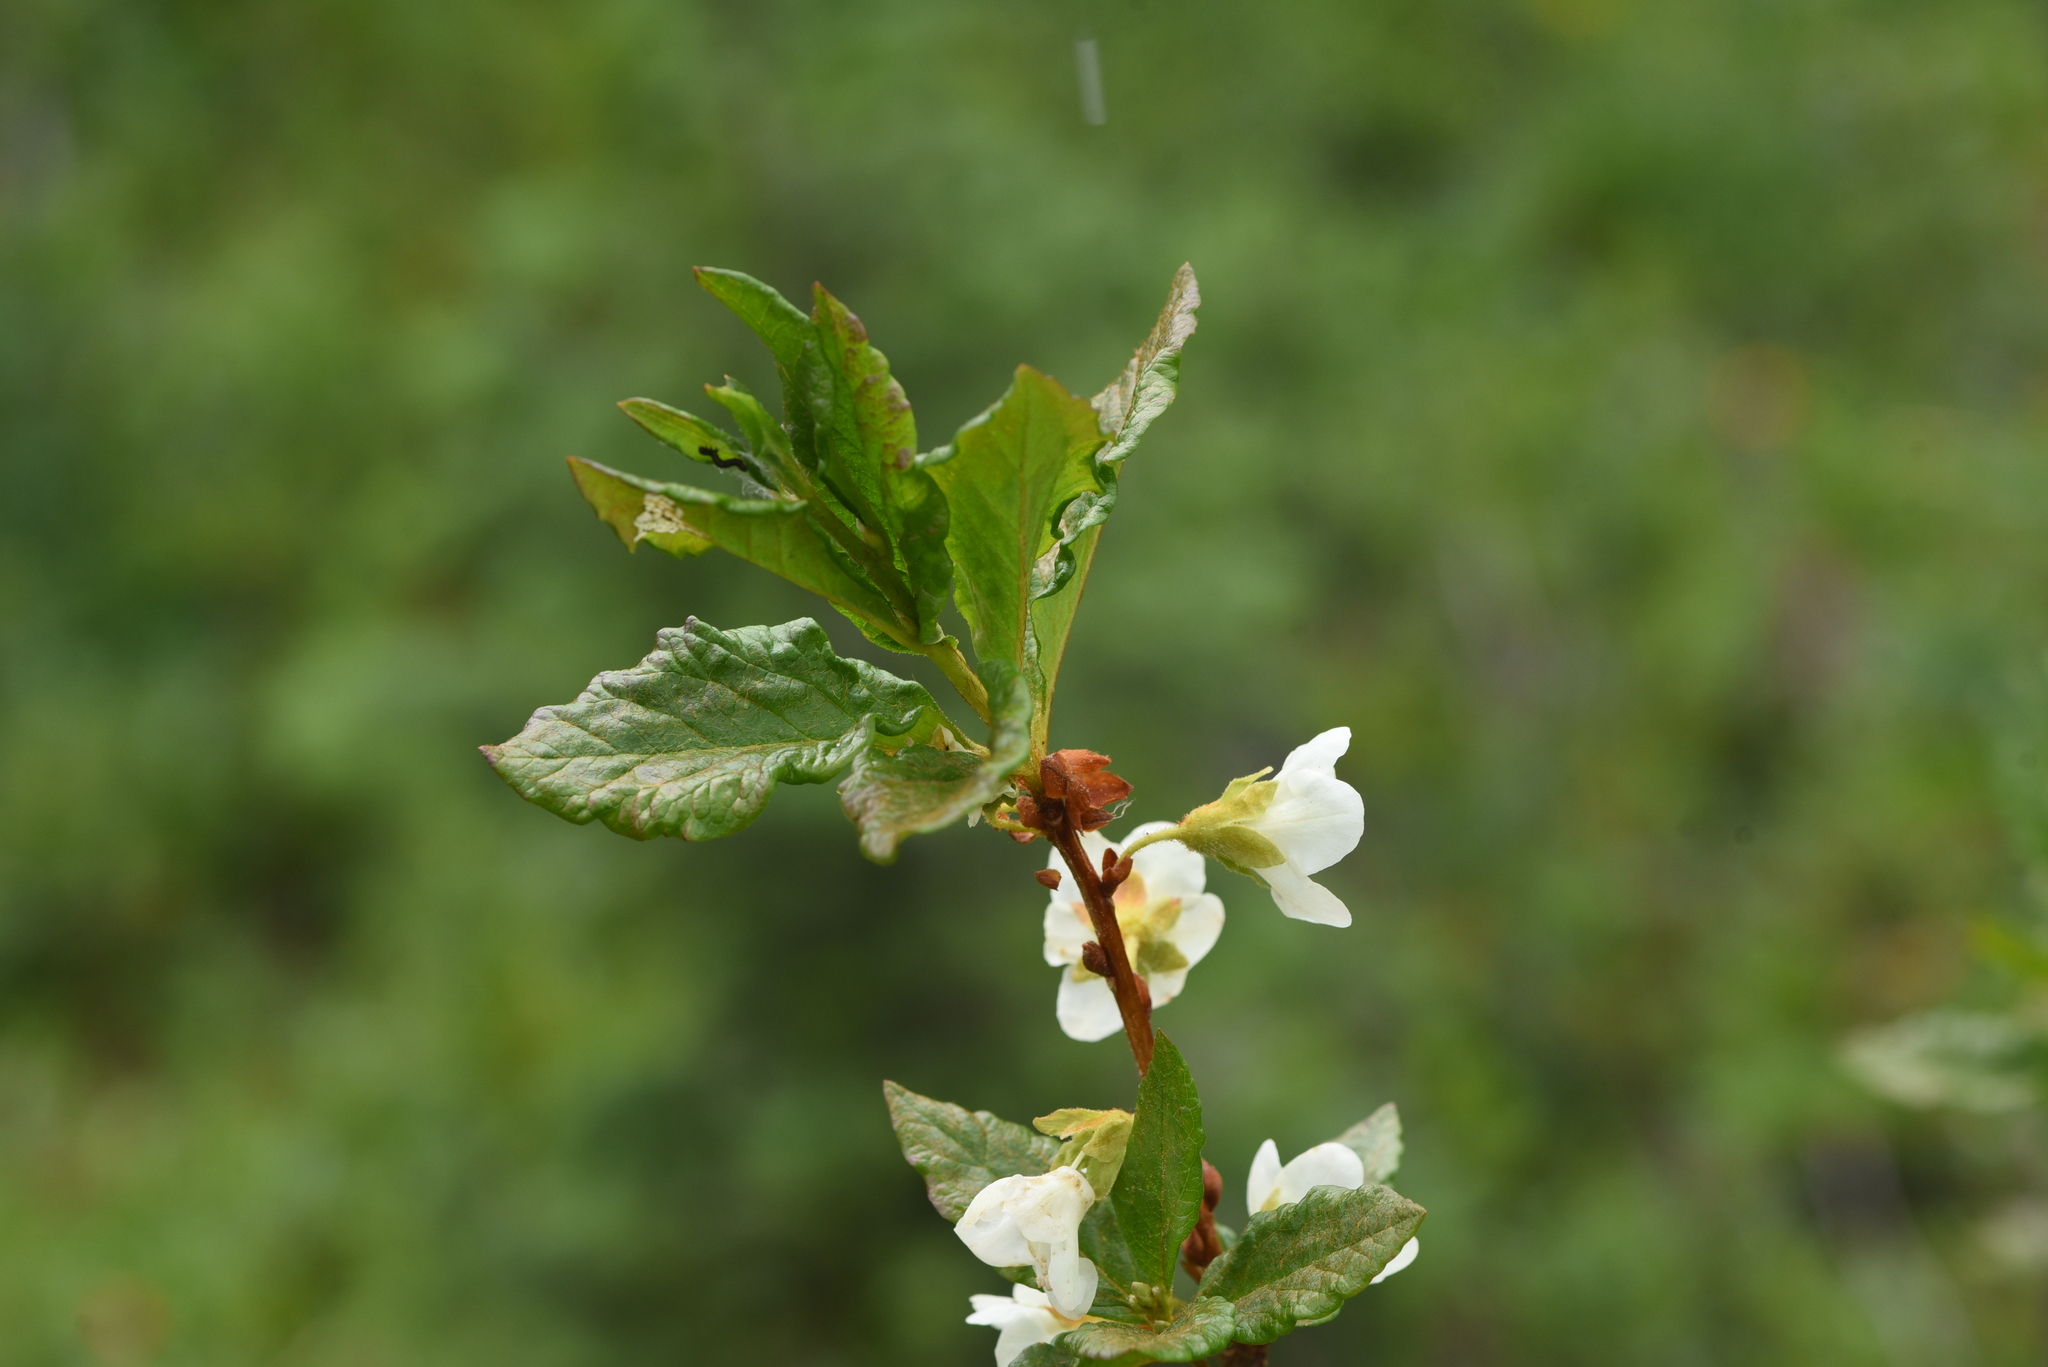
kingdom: Plantae
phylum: Tracheophyta
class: Magnoliopsida
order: Ericales
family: Ericaceae
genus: Rhododendron
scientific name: Rhododendron albiflorum
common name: White rhododendron
